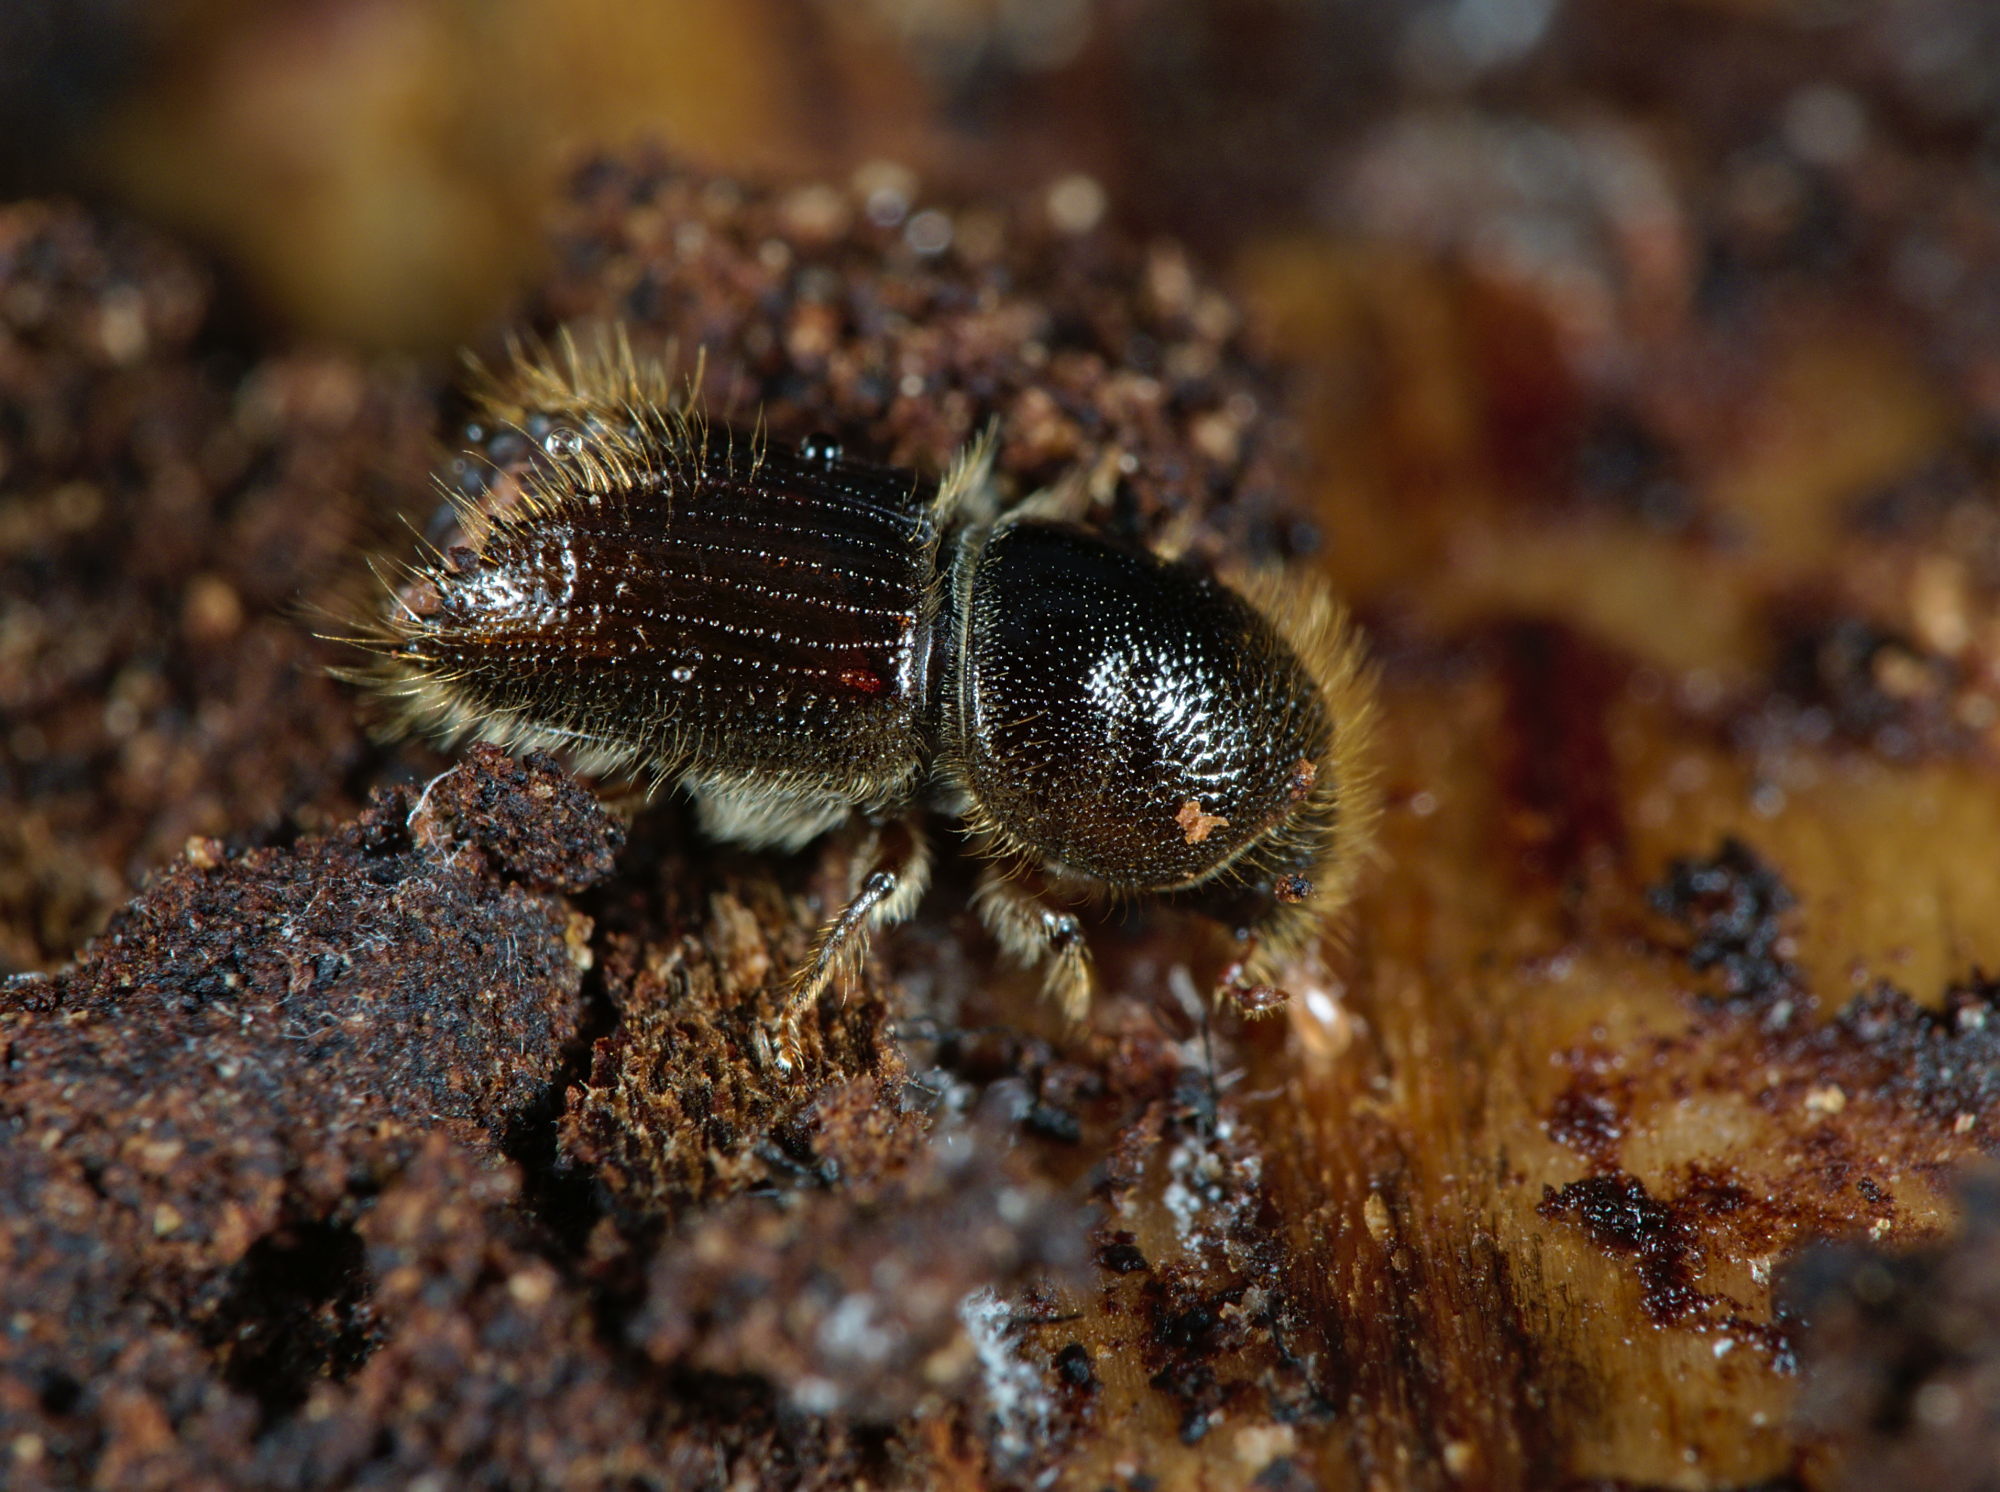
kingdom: Animalia
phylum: Arthropoda
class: Insecta
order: Coleoptera
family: Curculionidae
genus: Ips
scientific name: Ips typographus
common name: Eight-toothed spruce bark beetle
